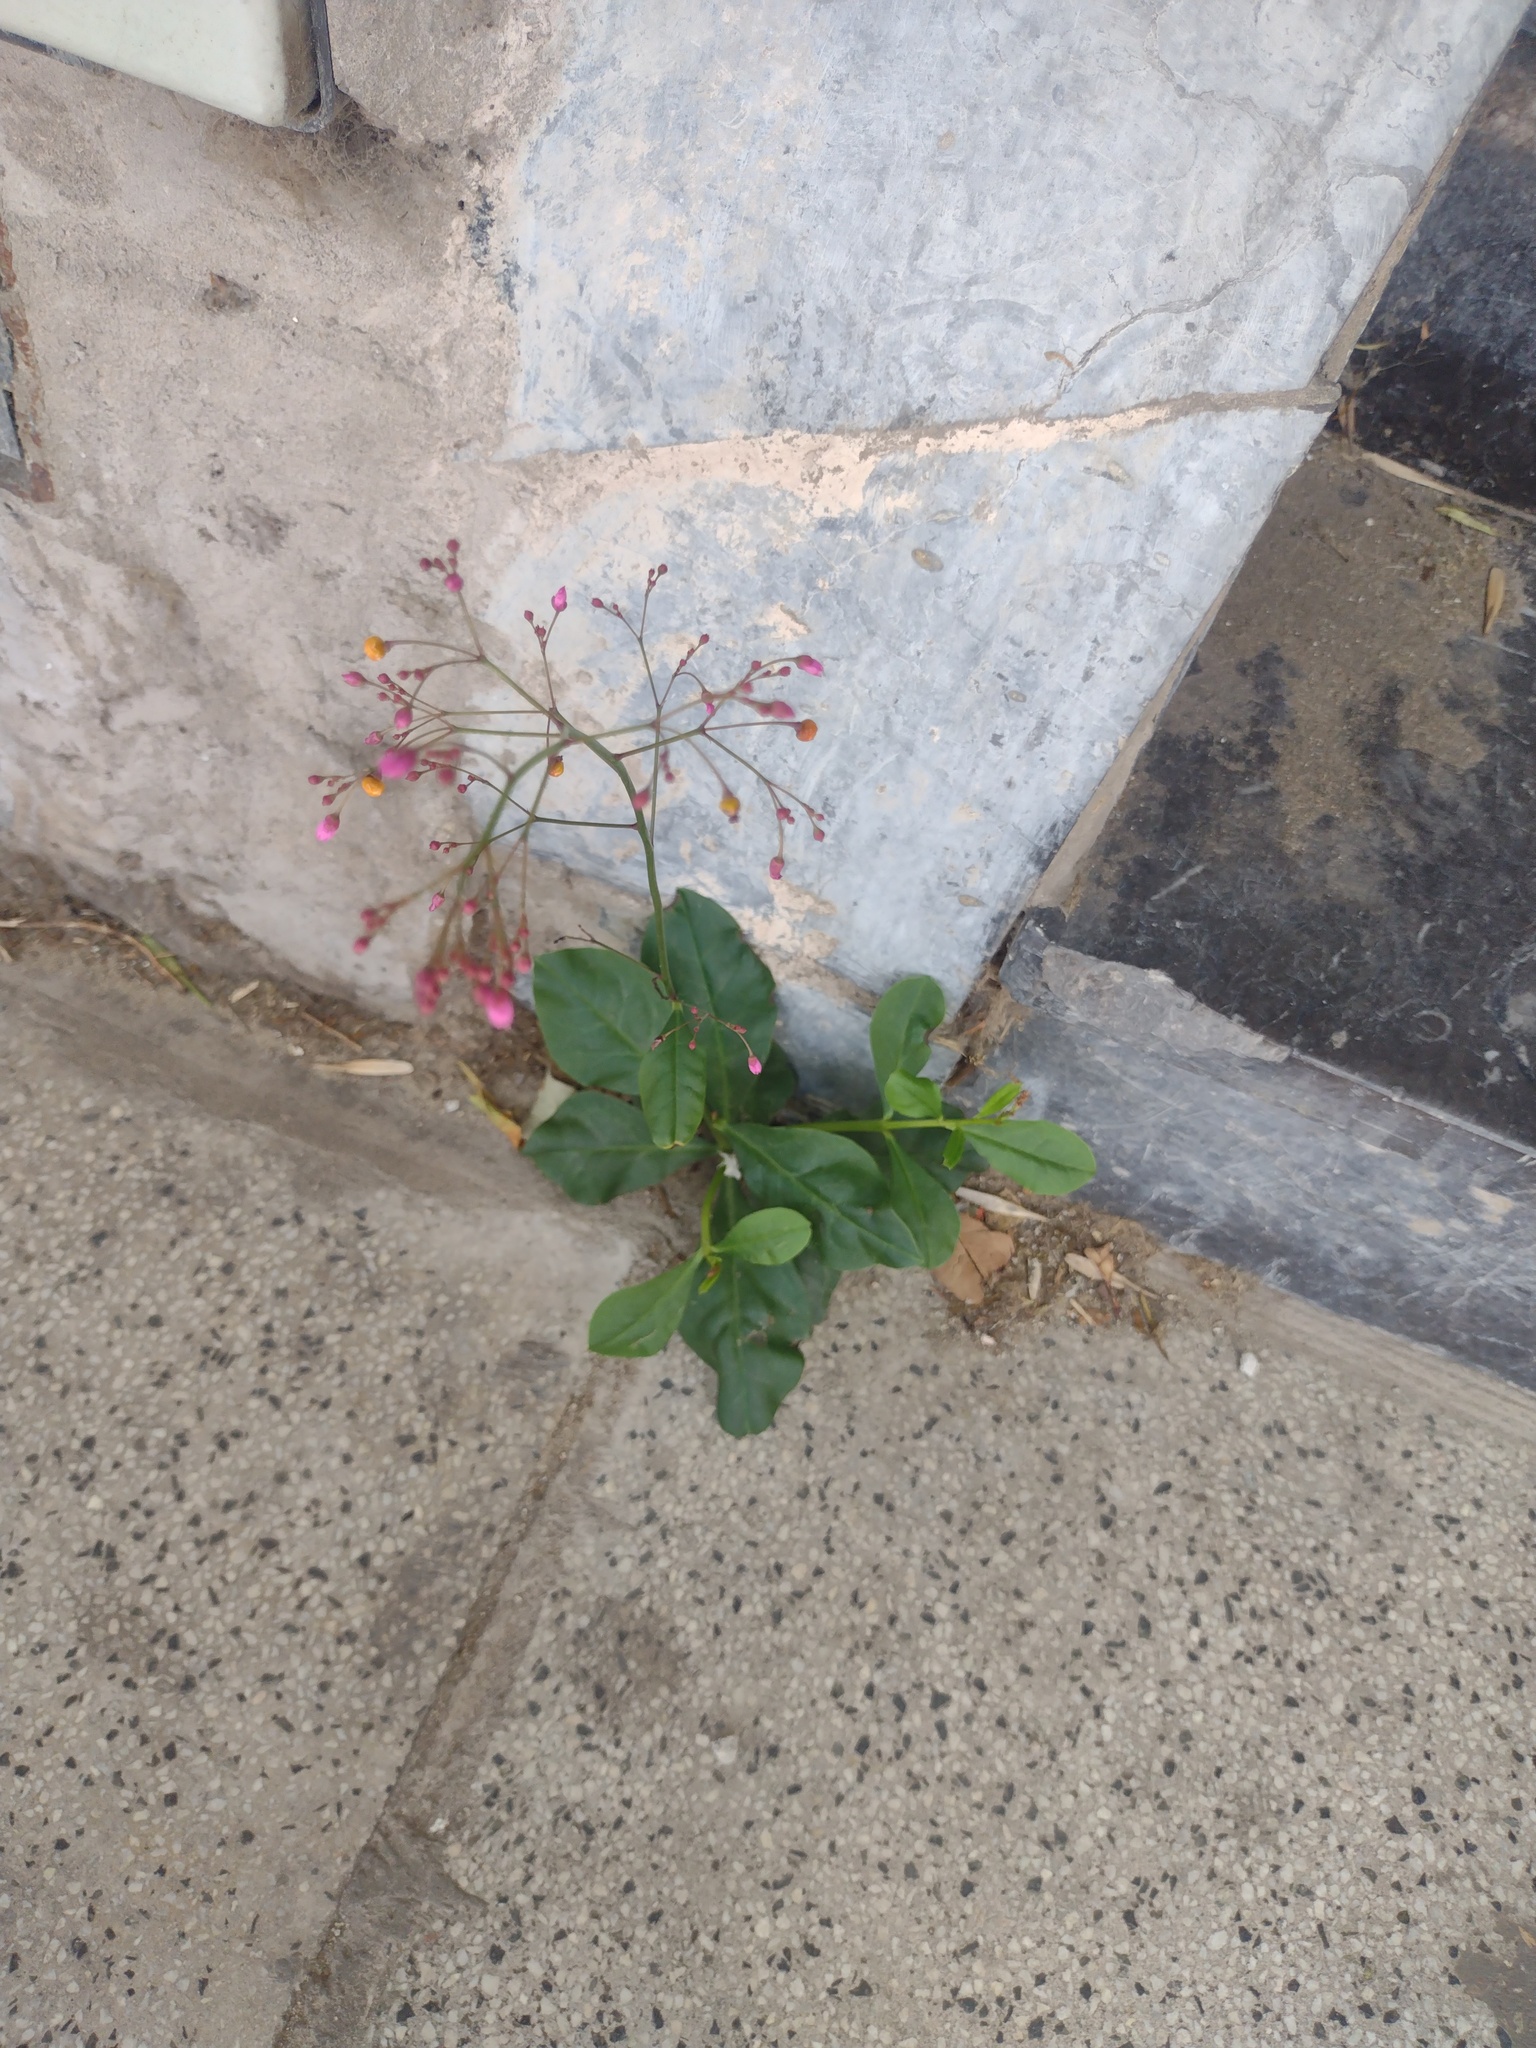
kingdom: Plantae
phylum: Tracheophyta
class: Magnoliopsida
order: Caryophyllales
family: Talinaceae
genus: Talinum
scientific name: Talinum paniculatum
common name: Jewels of opar
